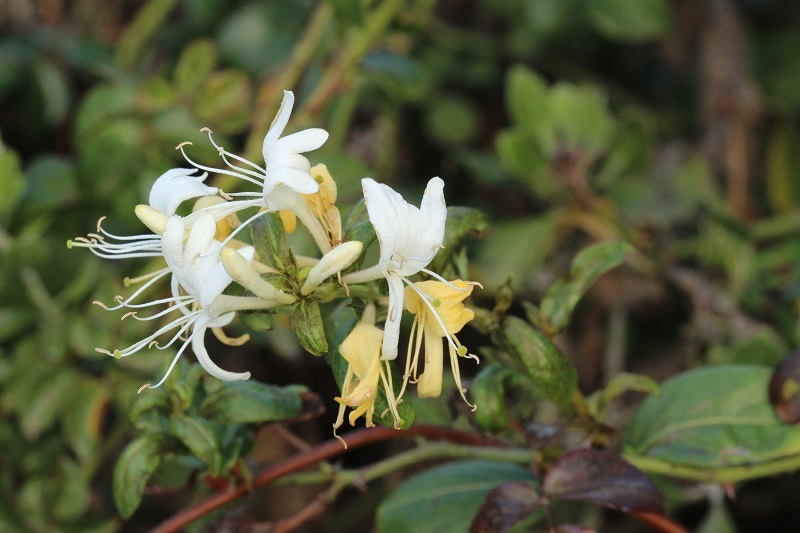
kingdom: Plantae
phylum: Tracheophyta
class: Magnoliopsida
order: Dipsacales
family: Caprifoliaceae
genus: Lonicera
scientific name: Lonicera japonica
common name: Japanese honeysuckle
